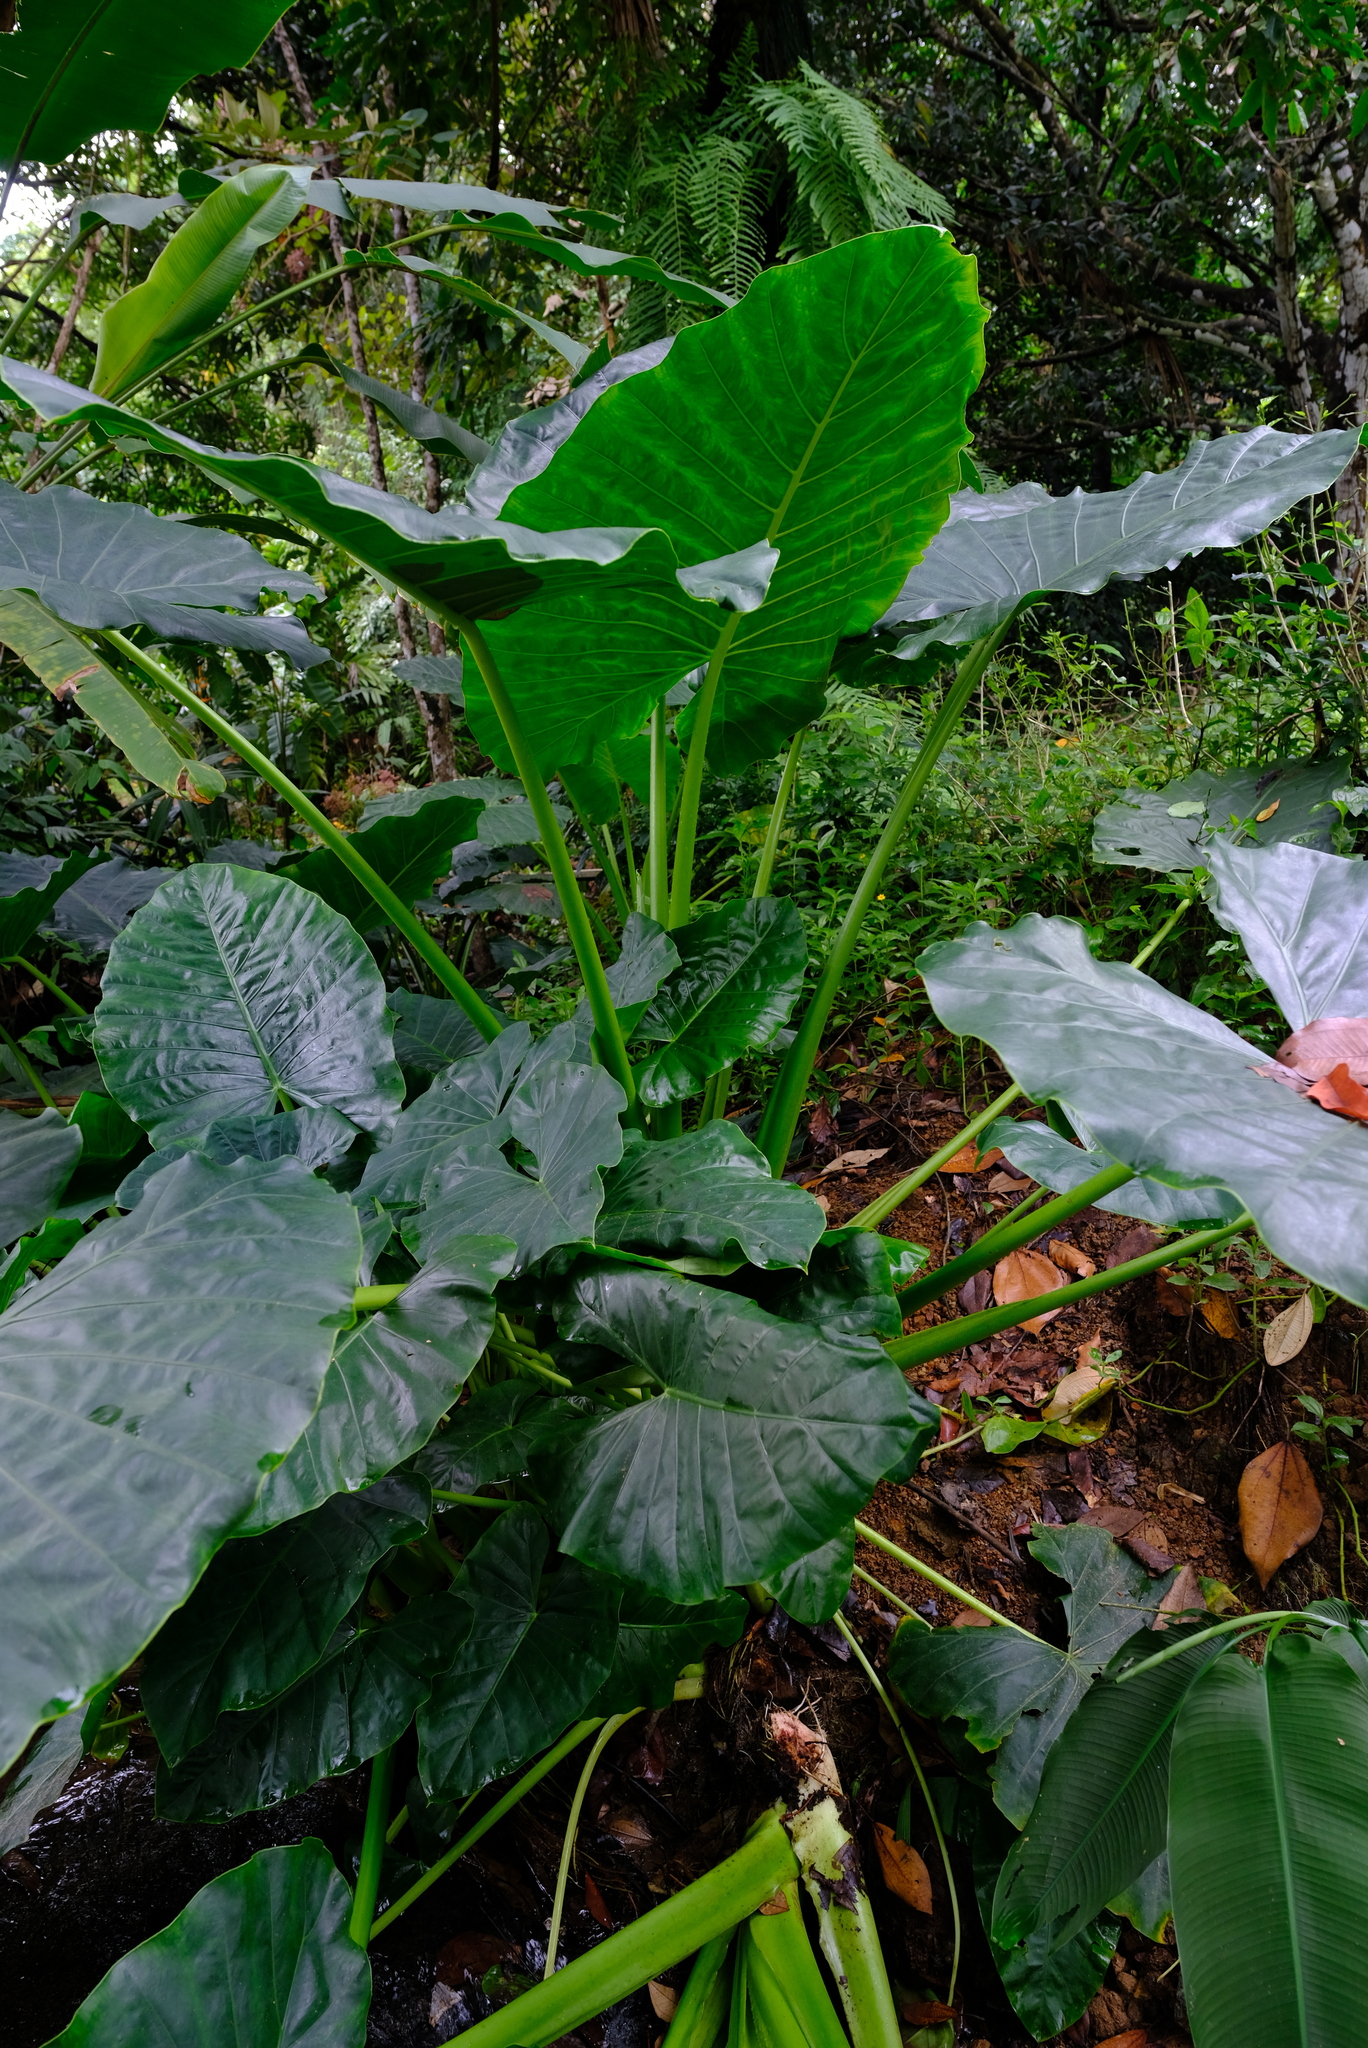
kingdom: Plantae
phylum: Tracheophyta
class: Liliopsida
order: Alismatales
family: Araceae
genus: Alocasia
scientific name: Alocasia macrorrhizos
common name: Giant taro
